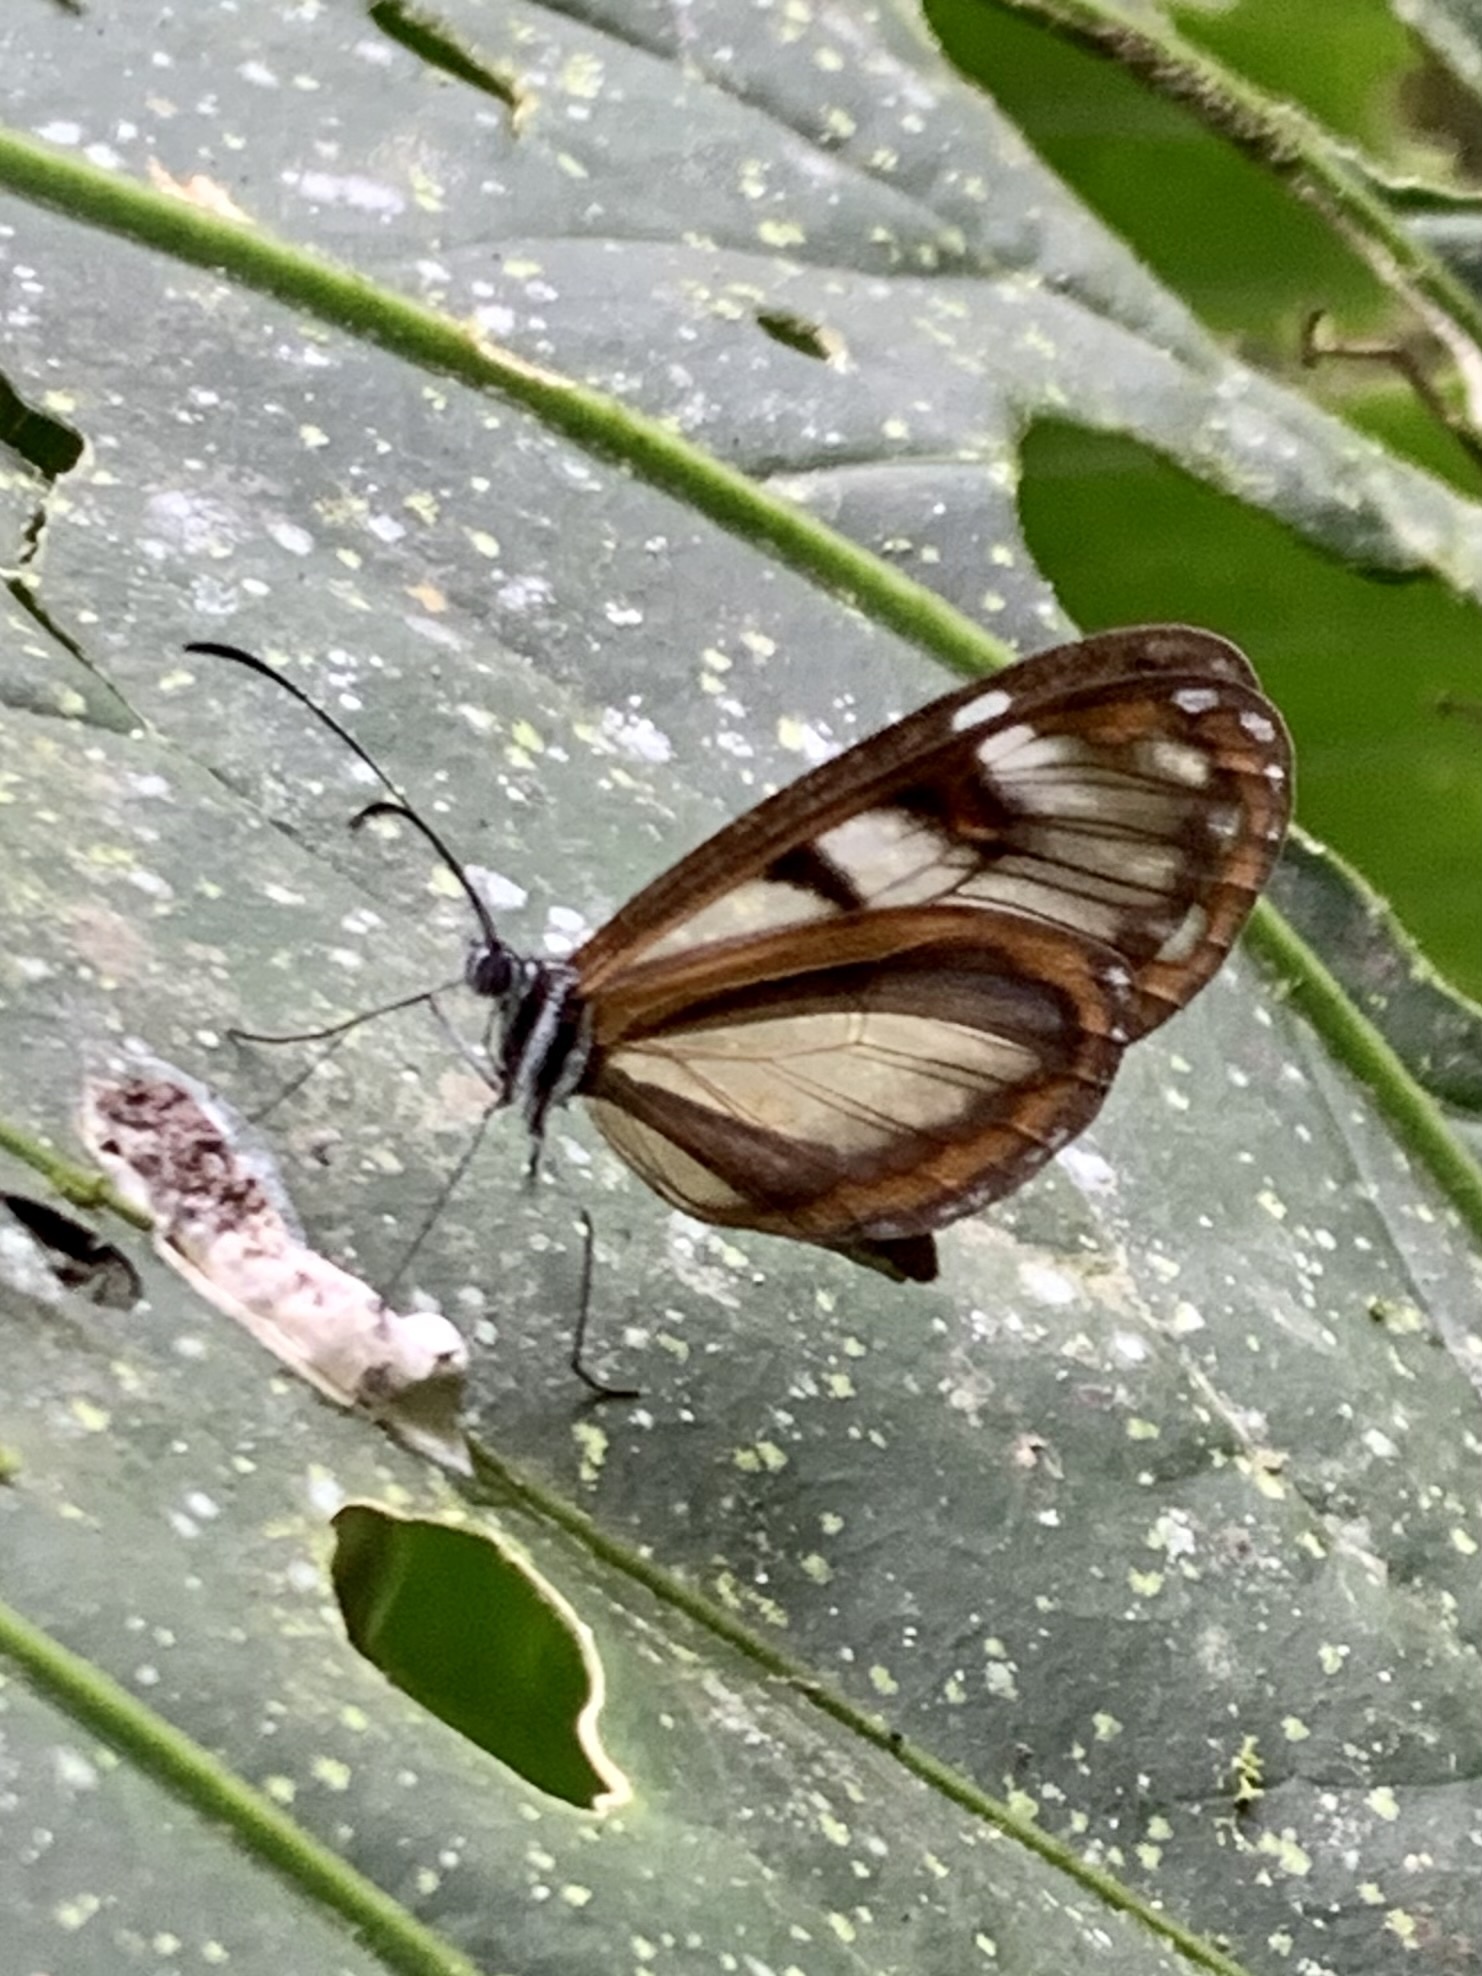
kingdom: Animalia
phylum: Arthropoda
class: Insecta
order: Lepidoptera
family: Nymphalidae
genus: Oleria
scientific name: Oleria makrena
